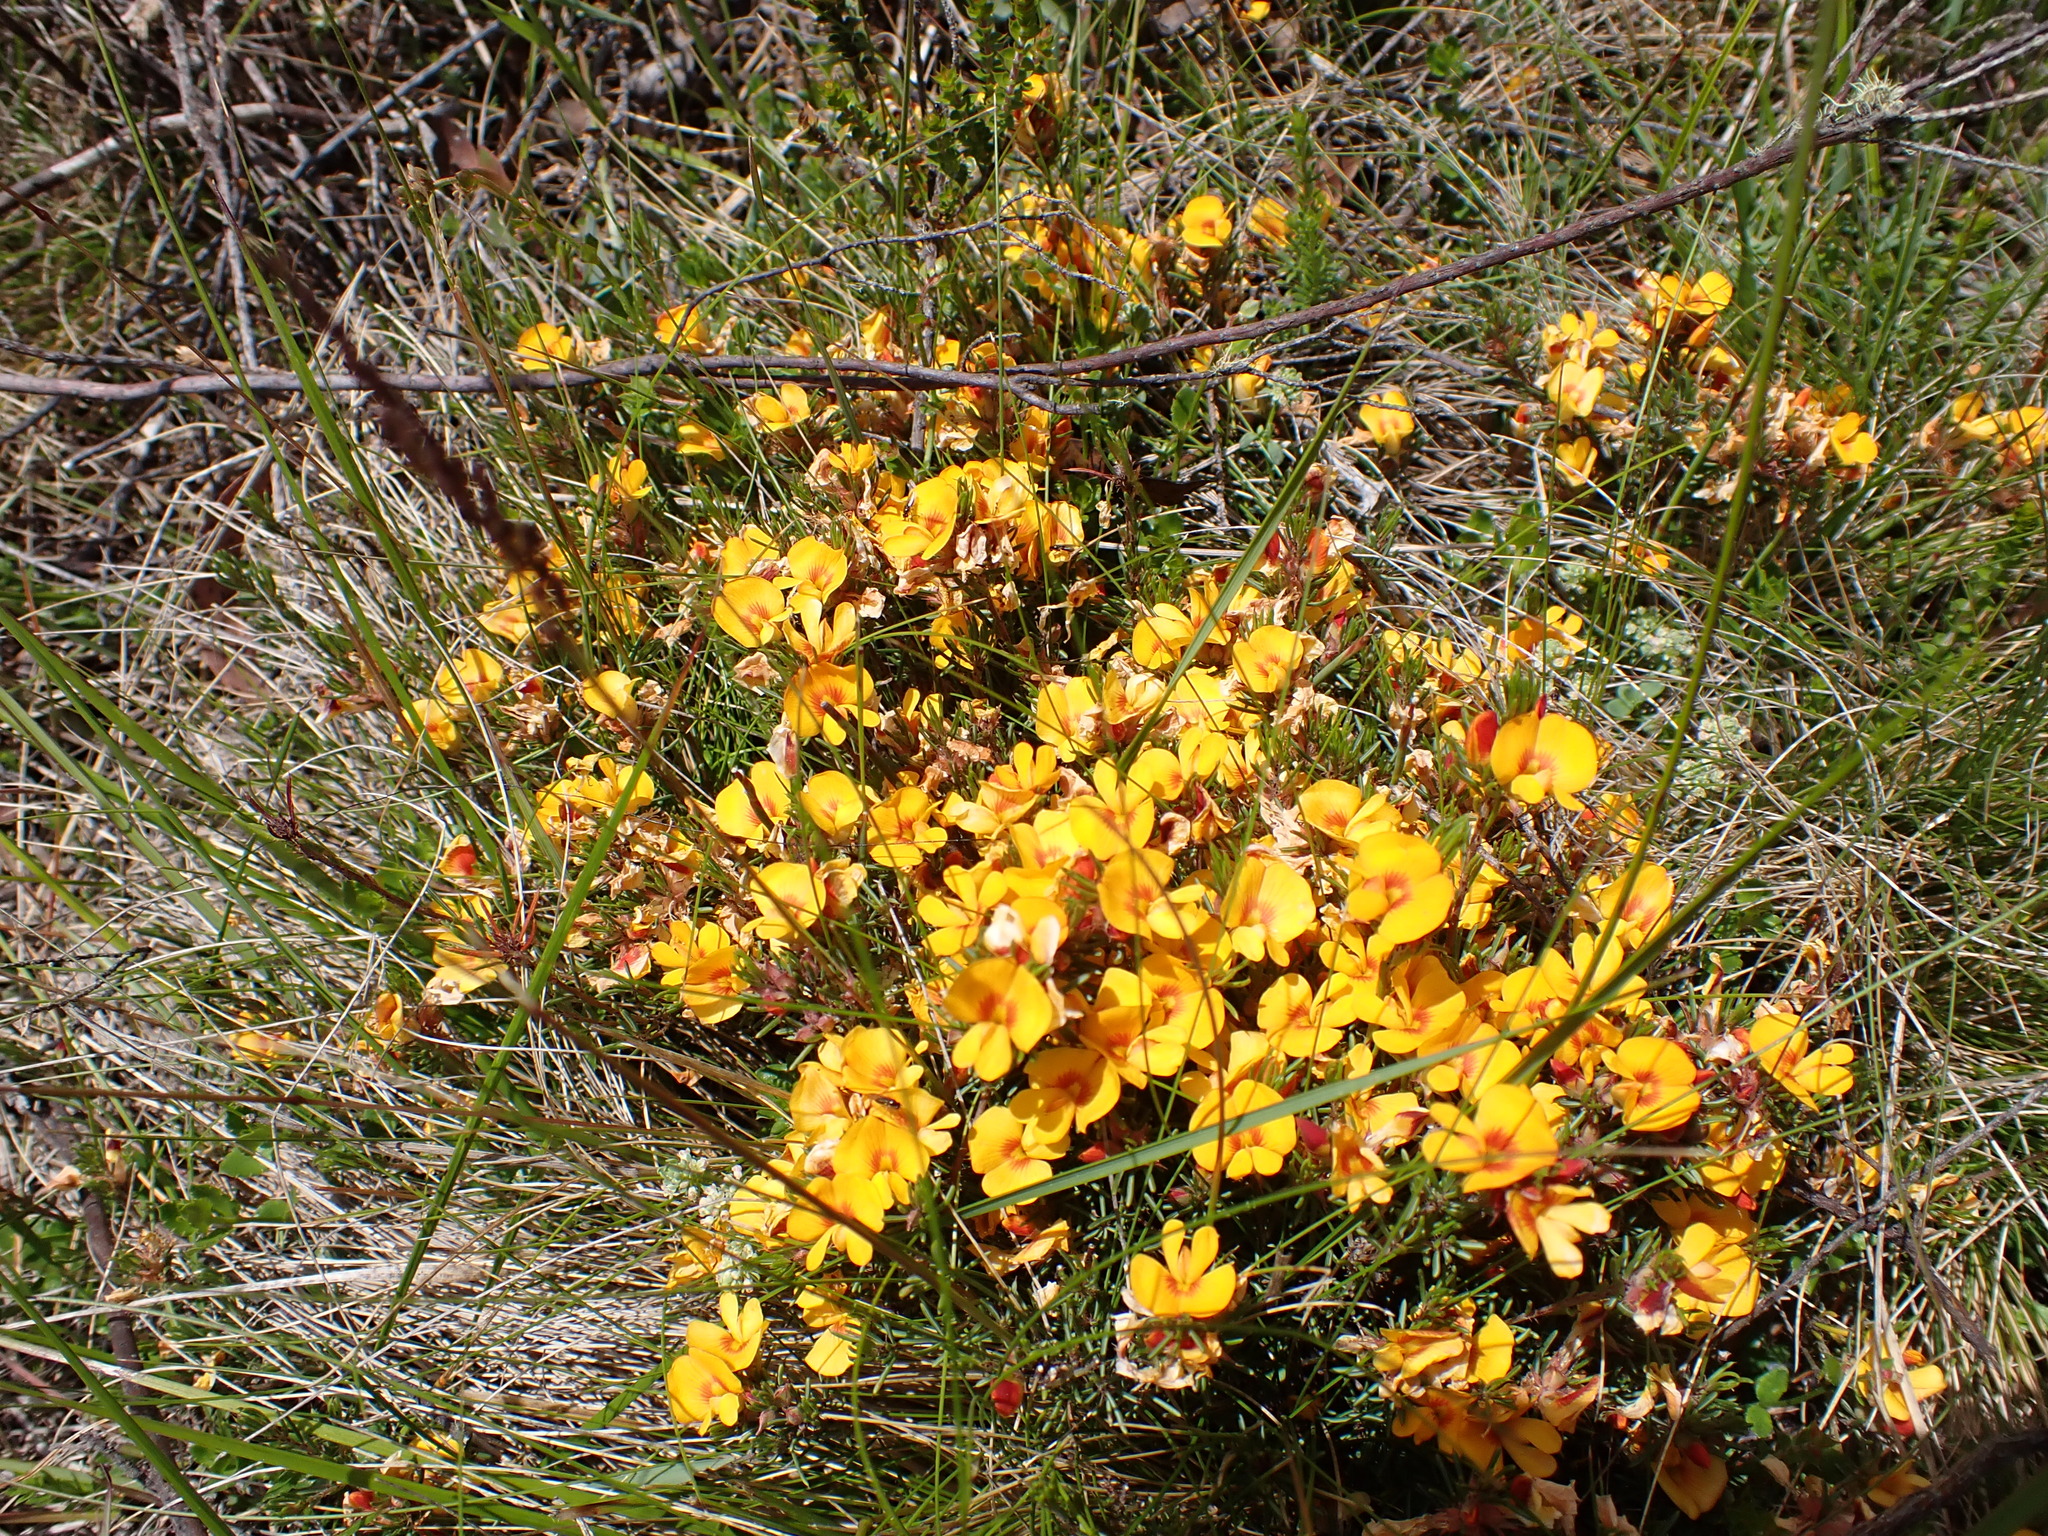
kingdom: Plantae
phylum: Tracheophyta
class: Magnoliopsida
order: Fabales
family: Fabaceae
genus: Pultenaea
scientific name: Pultenaea fasciculata
